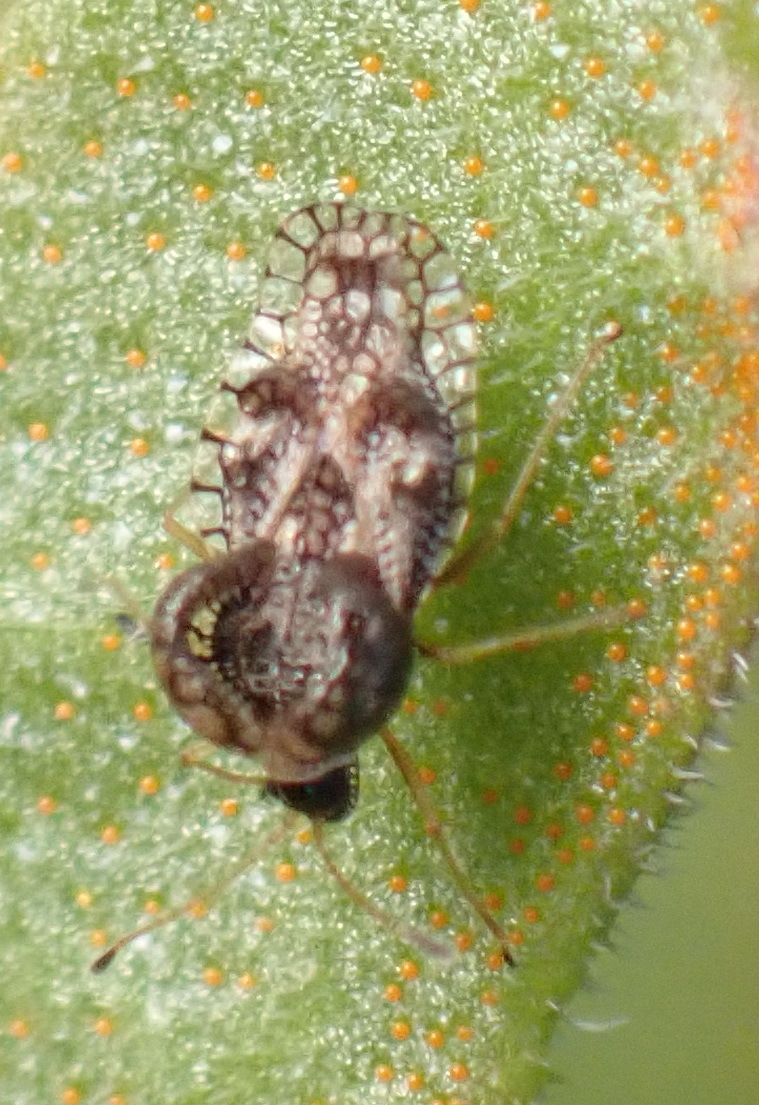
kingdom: Animalia
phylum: Arthropoda
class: Insecta
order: Hemiptera
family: Tingidae
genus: Cochlochila
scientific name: Cochlochila bullita
